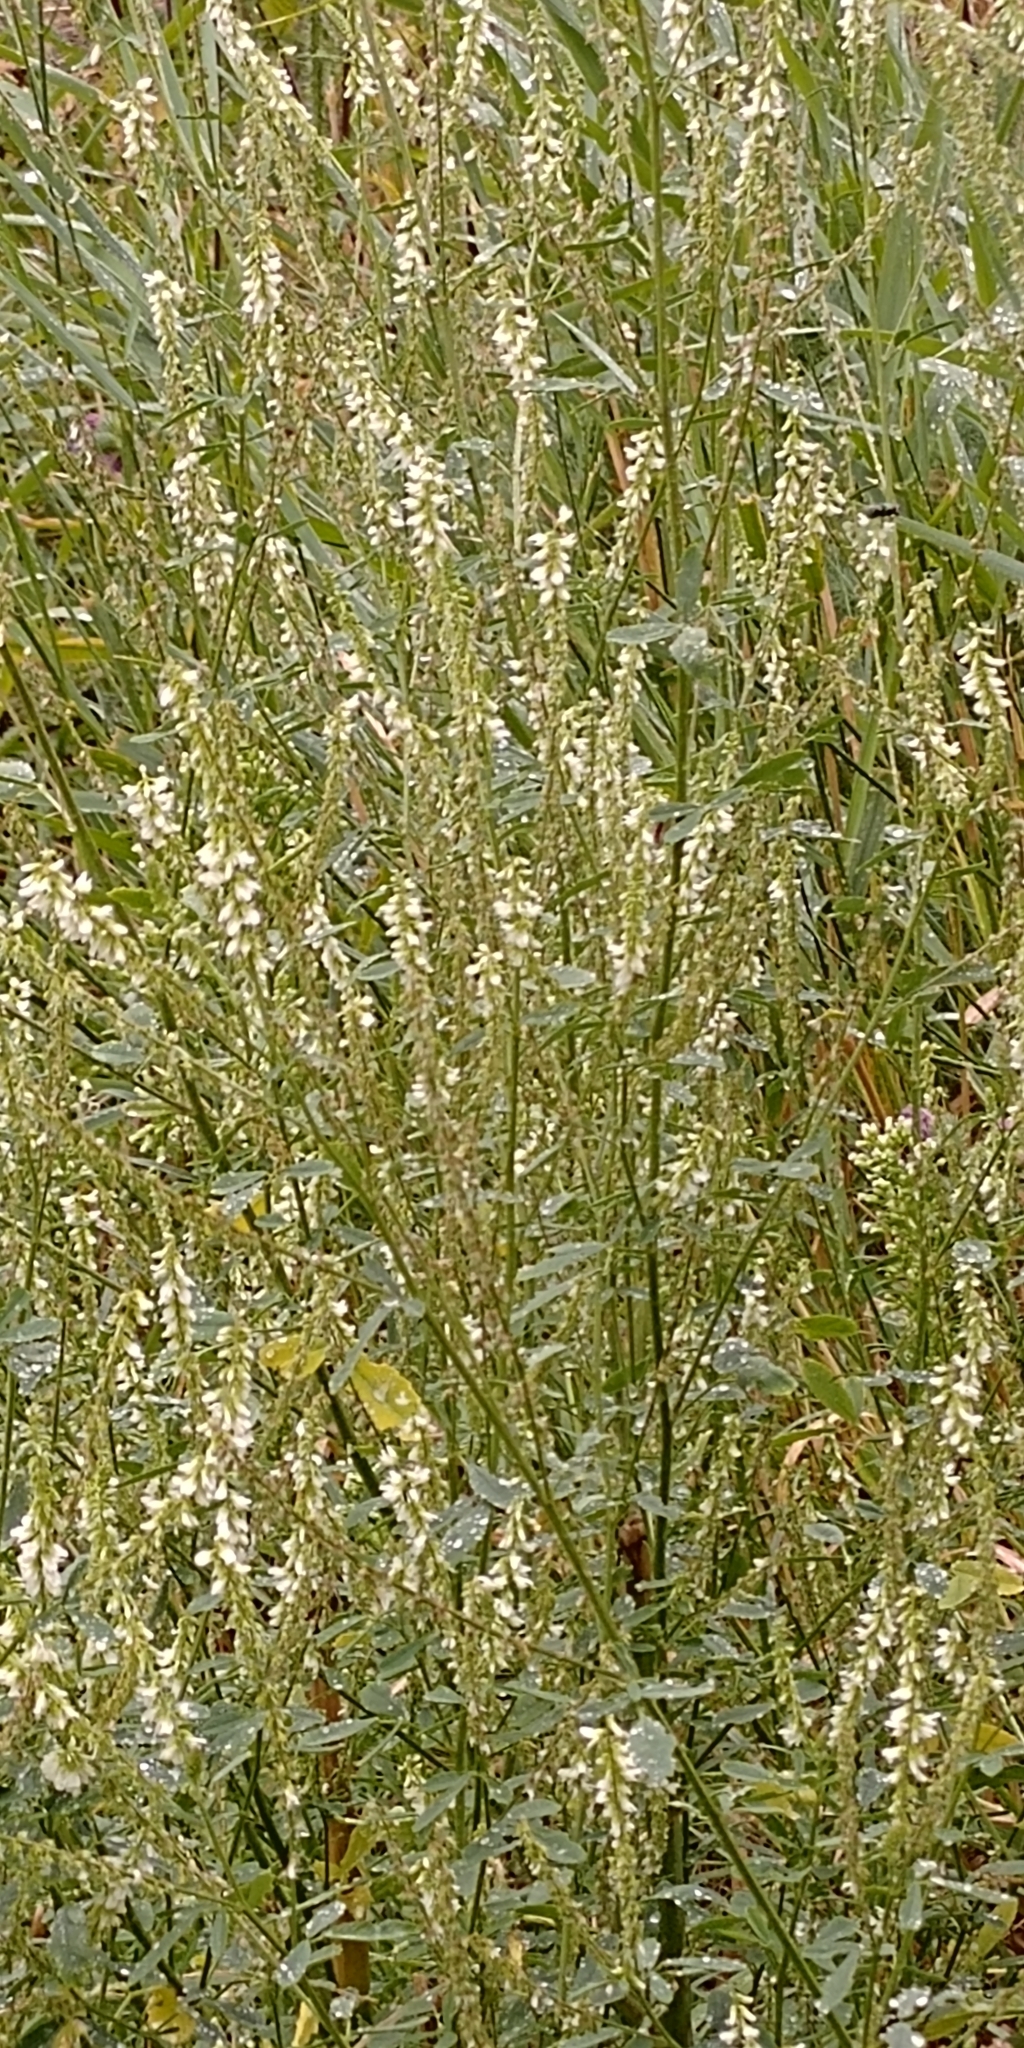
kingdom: Plantae
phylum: Tracheophyta
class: Magnoliopsida
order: Fabales
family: Fabaceae
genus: Melilotus
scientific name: Melilotus albus
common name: White melilot
